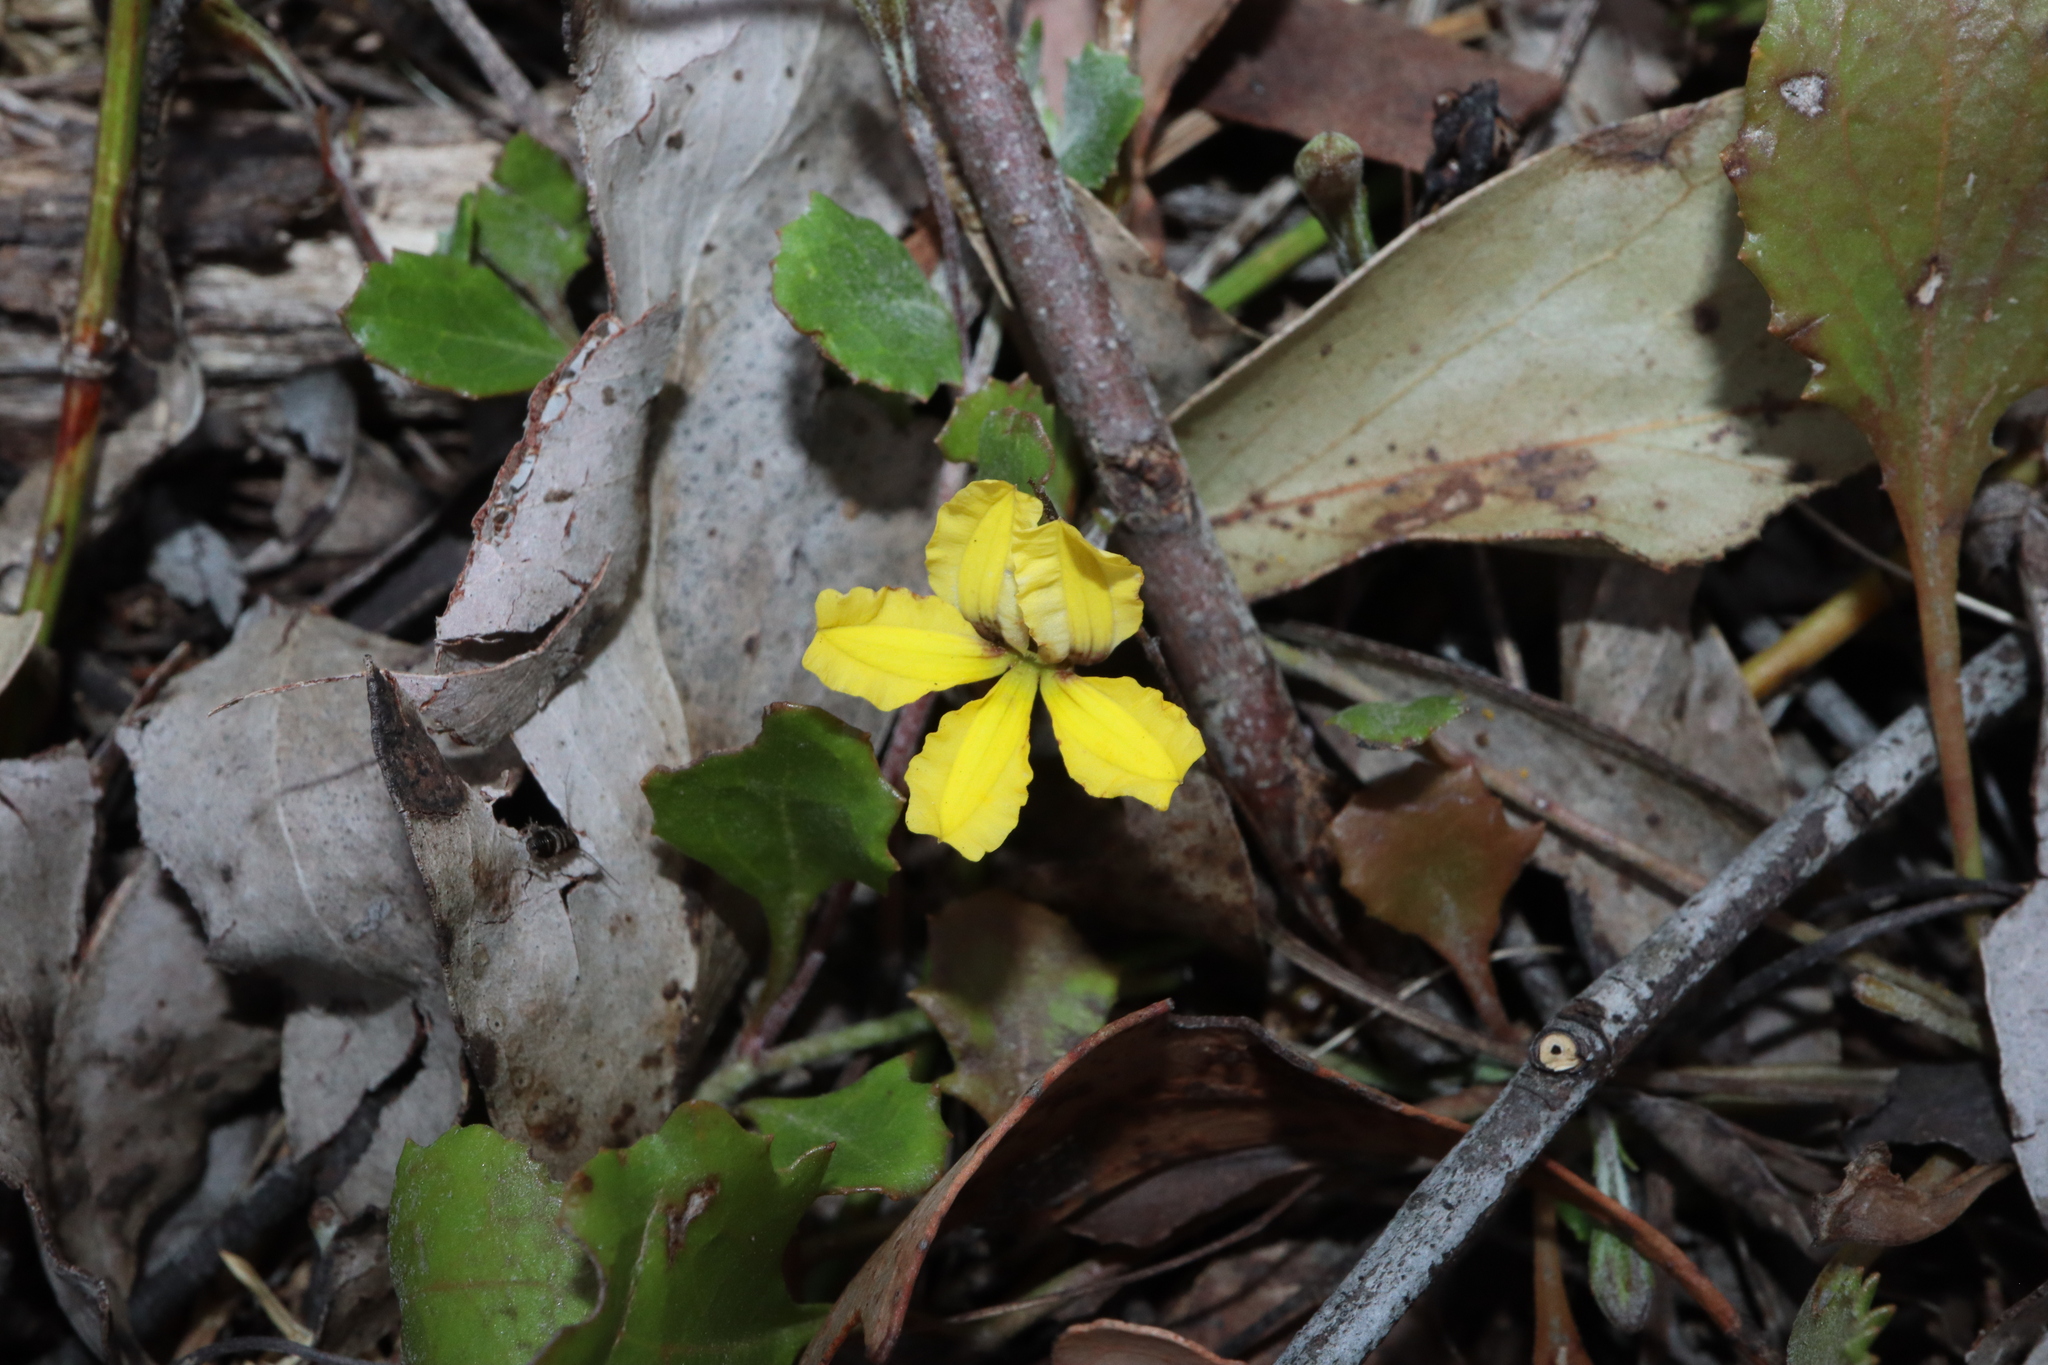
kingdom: Plantae
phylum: Tracheophyta
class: Magnoliopsida
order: Asterales
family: Goodeniaceae
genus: Goodenia
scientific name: Goodenia hederacea
